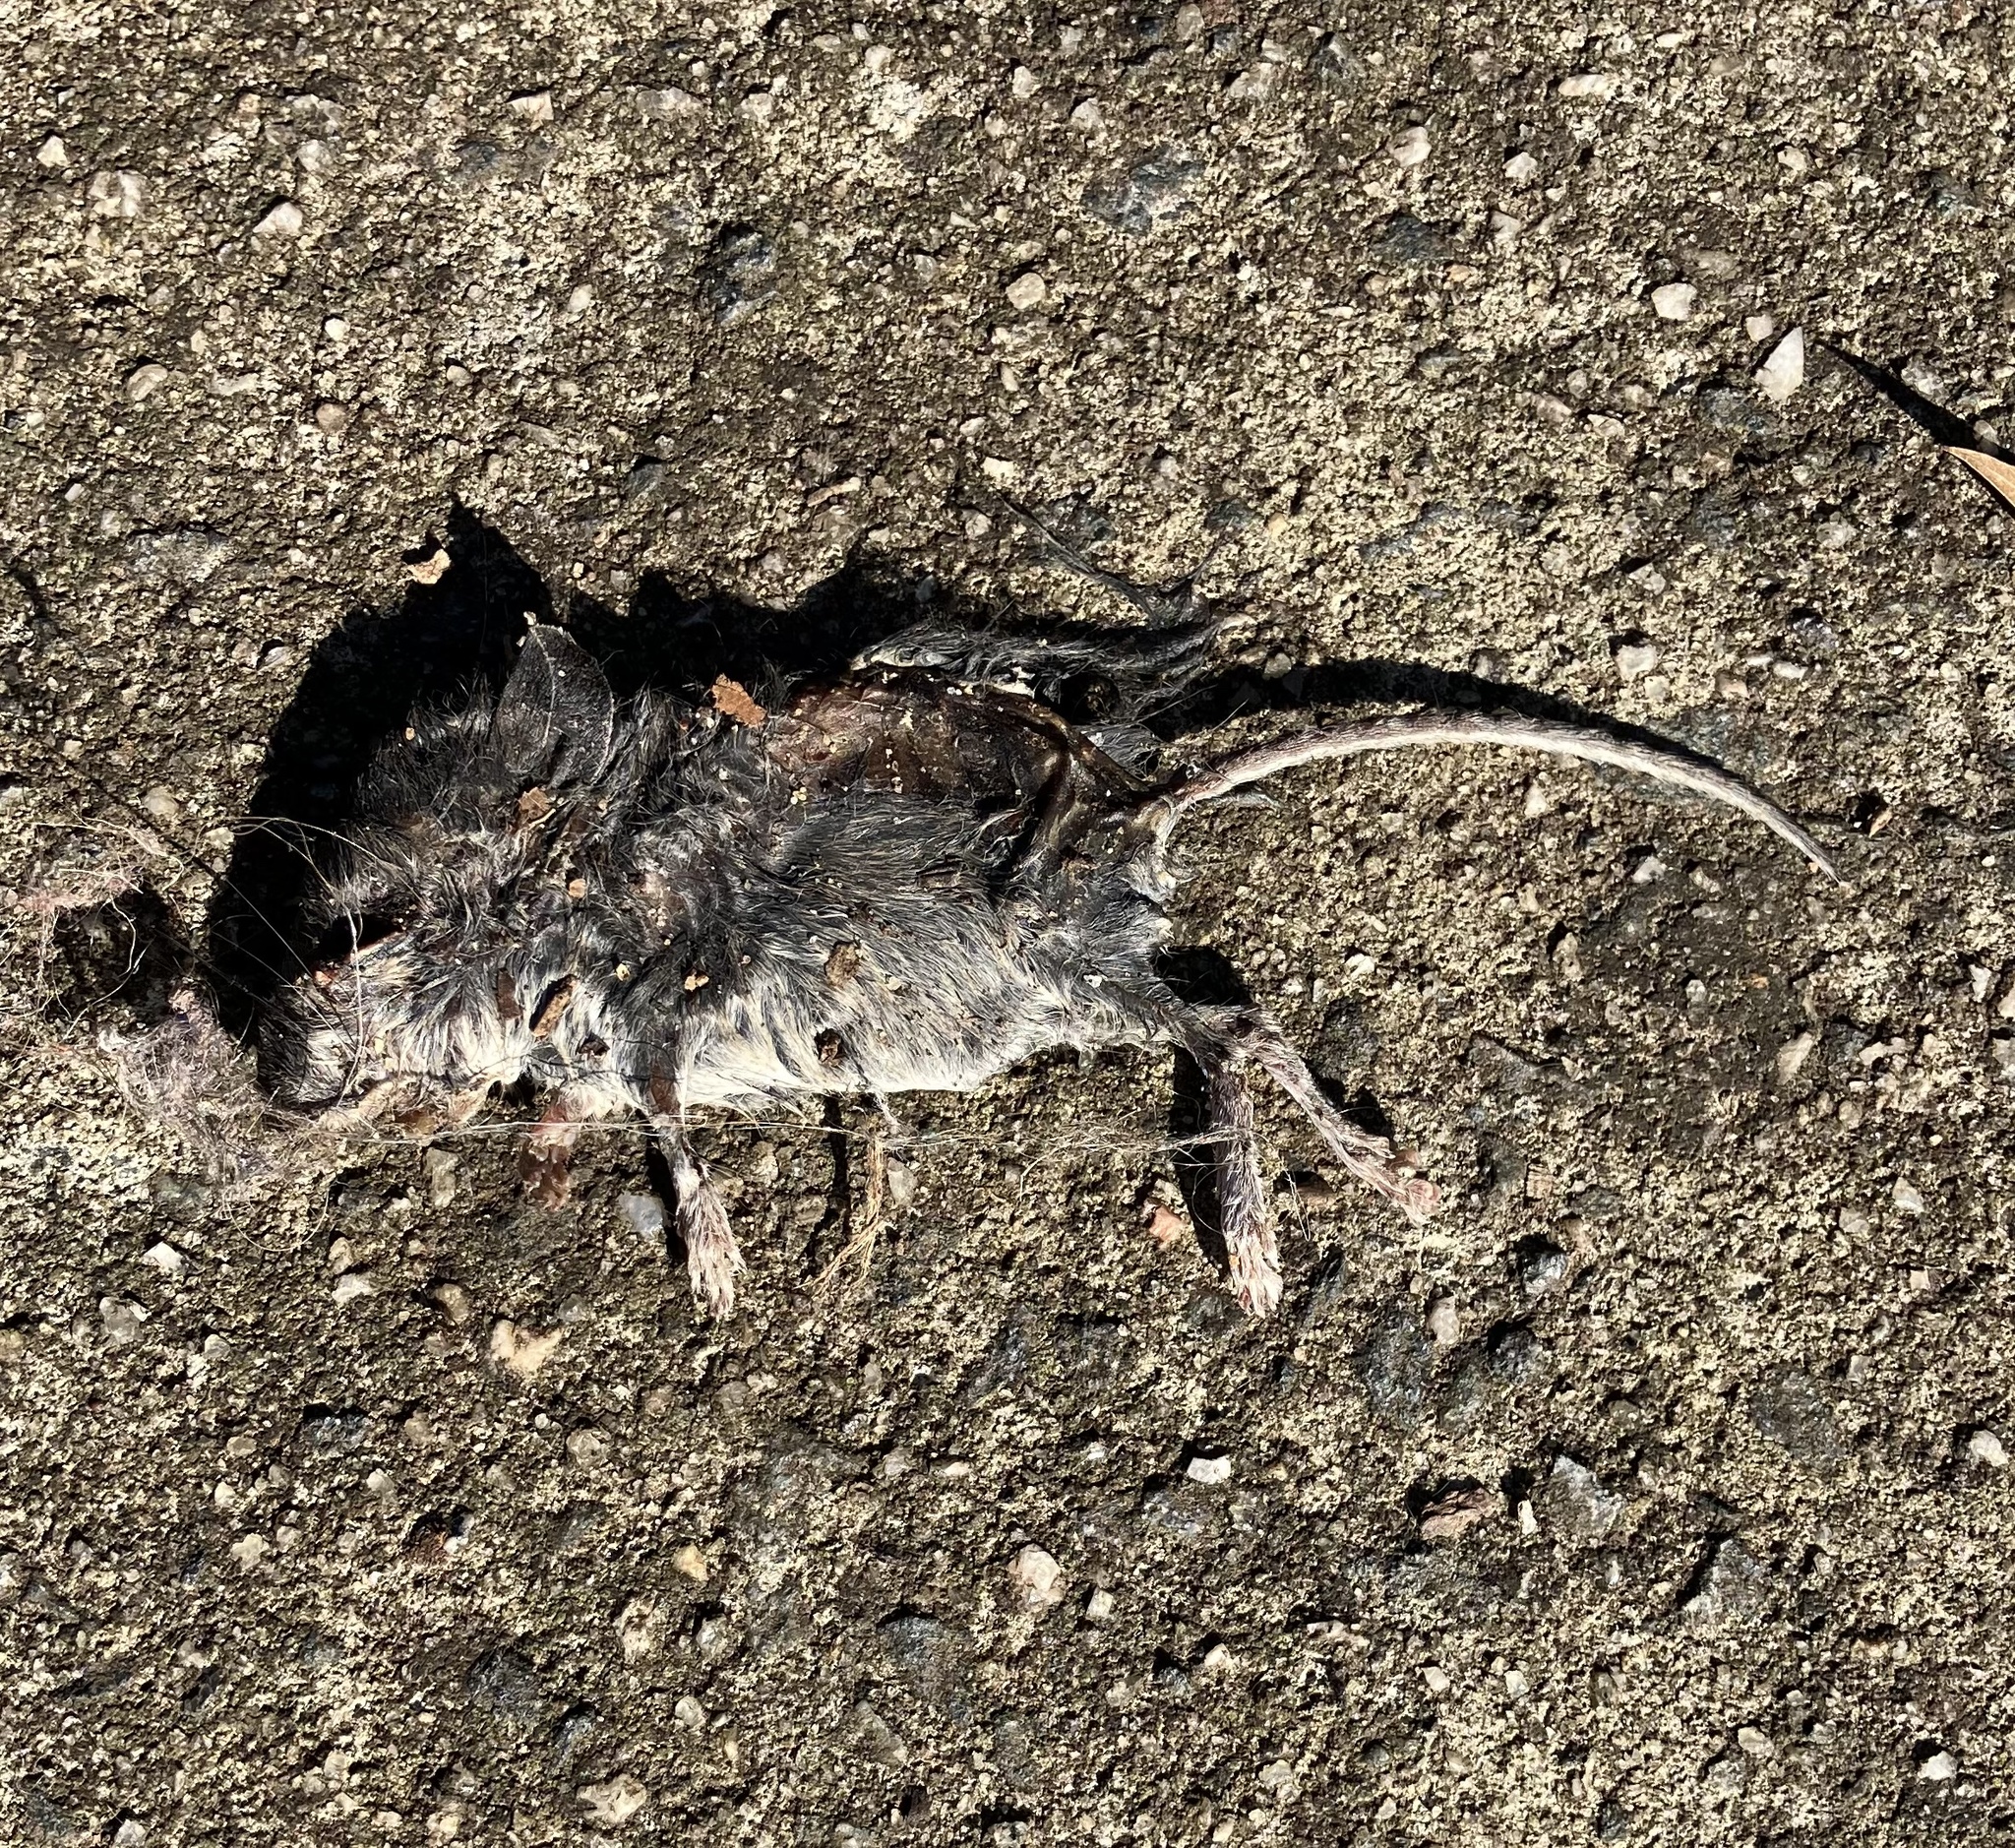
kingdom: Animalia
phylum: Chordata
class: Mammalia
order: Rodentia
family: Cricetidae
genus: Peromyscus
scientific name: Peromyscus leucopus
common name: White-footed deermouse
